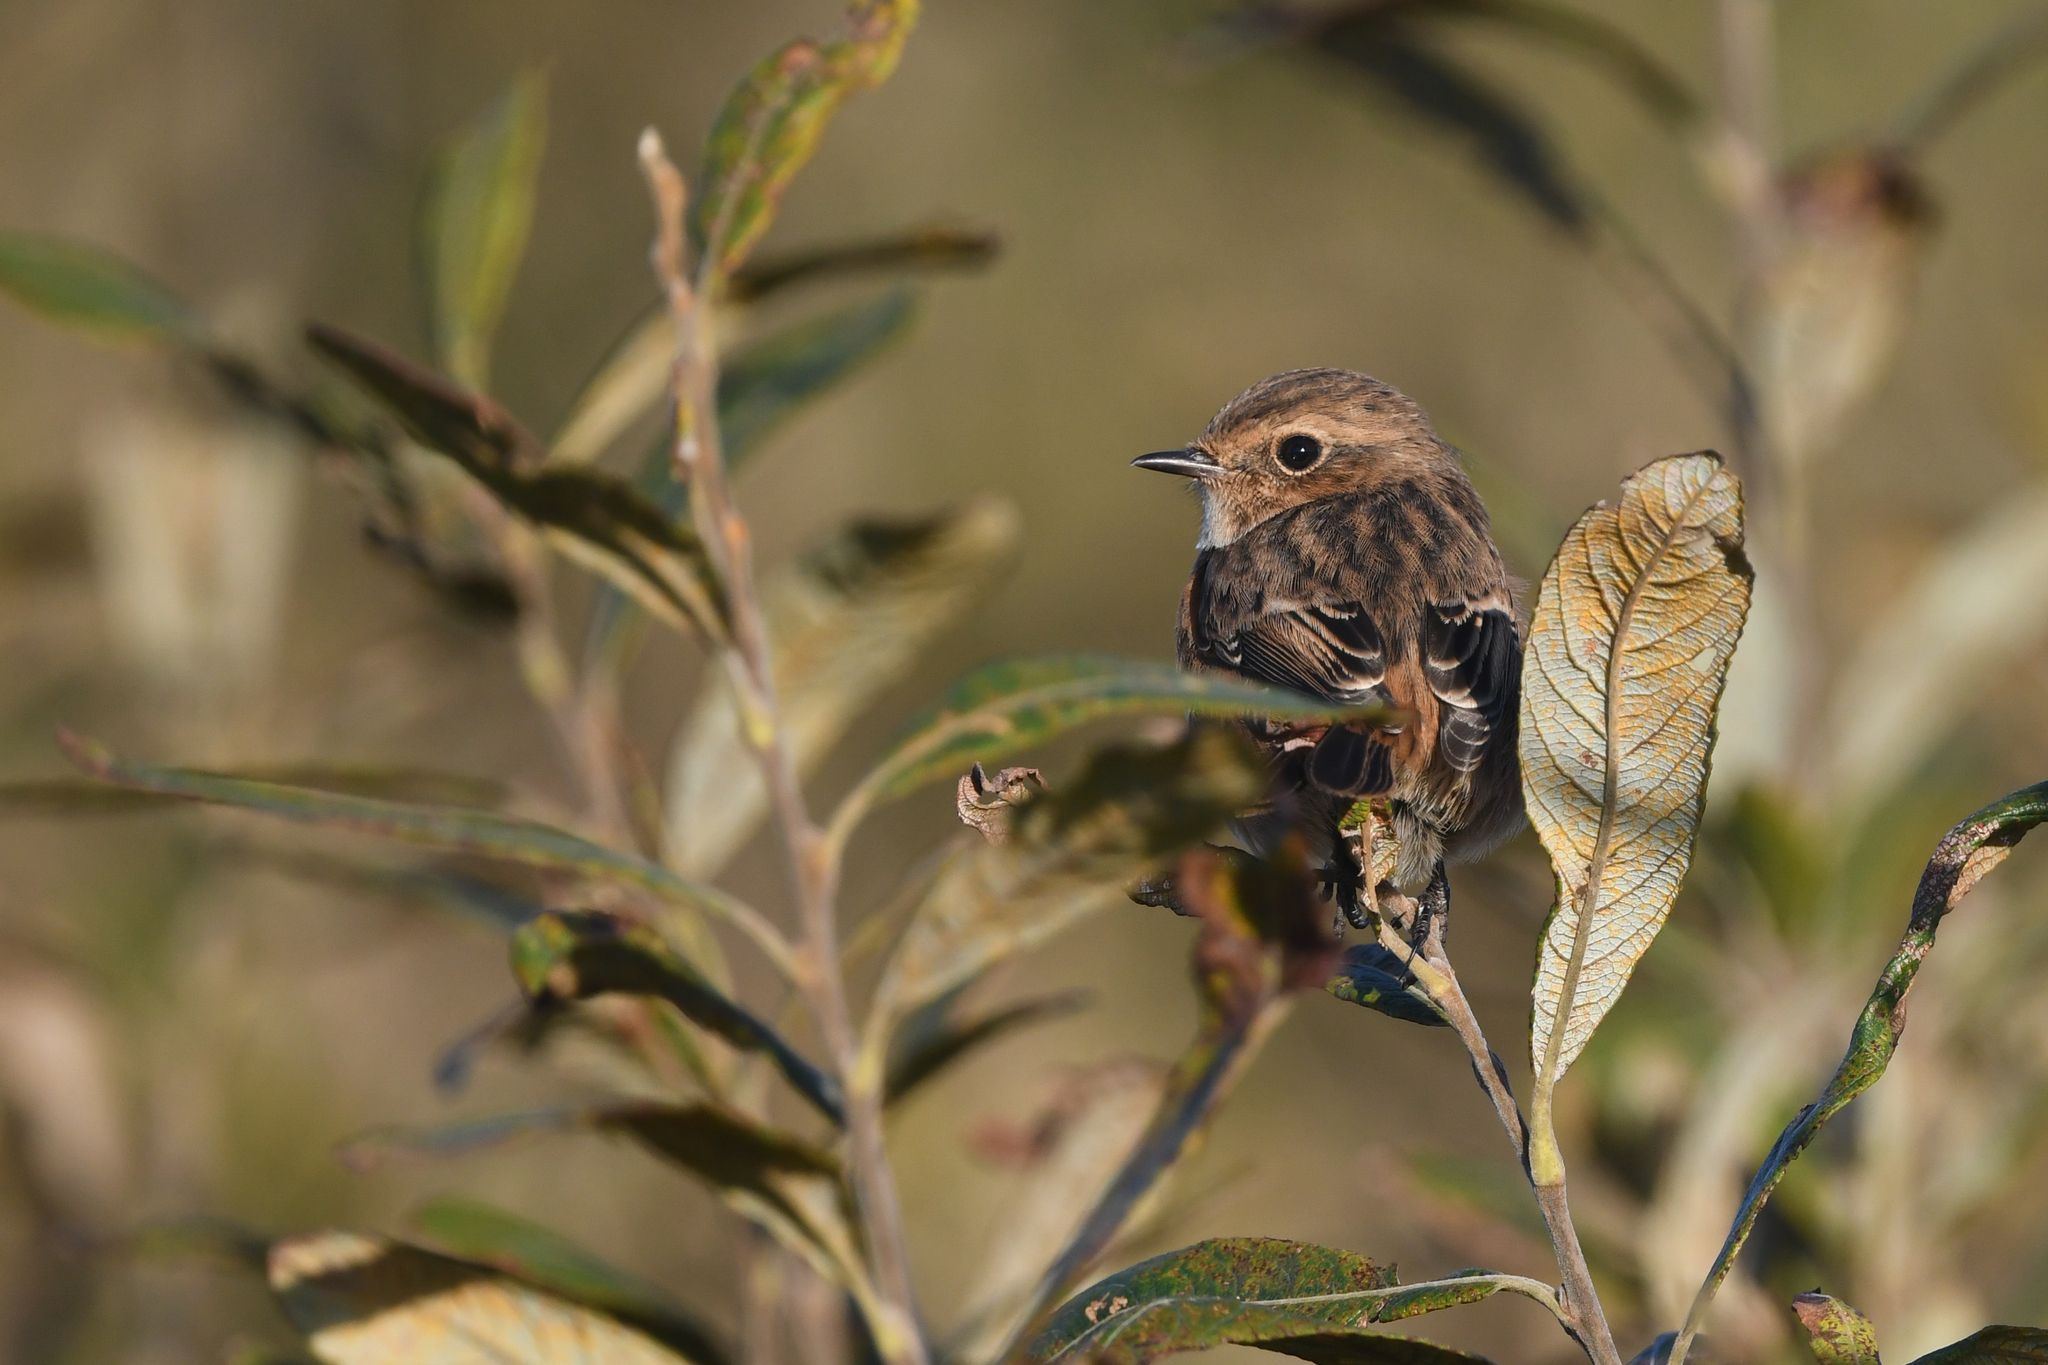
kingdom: Animalia
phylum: Chordata
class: Aves
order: Passeriformes
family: Muscicapidae
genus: Saxicola
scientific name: Saxicola rubicola
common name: European stonechat
